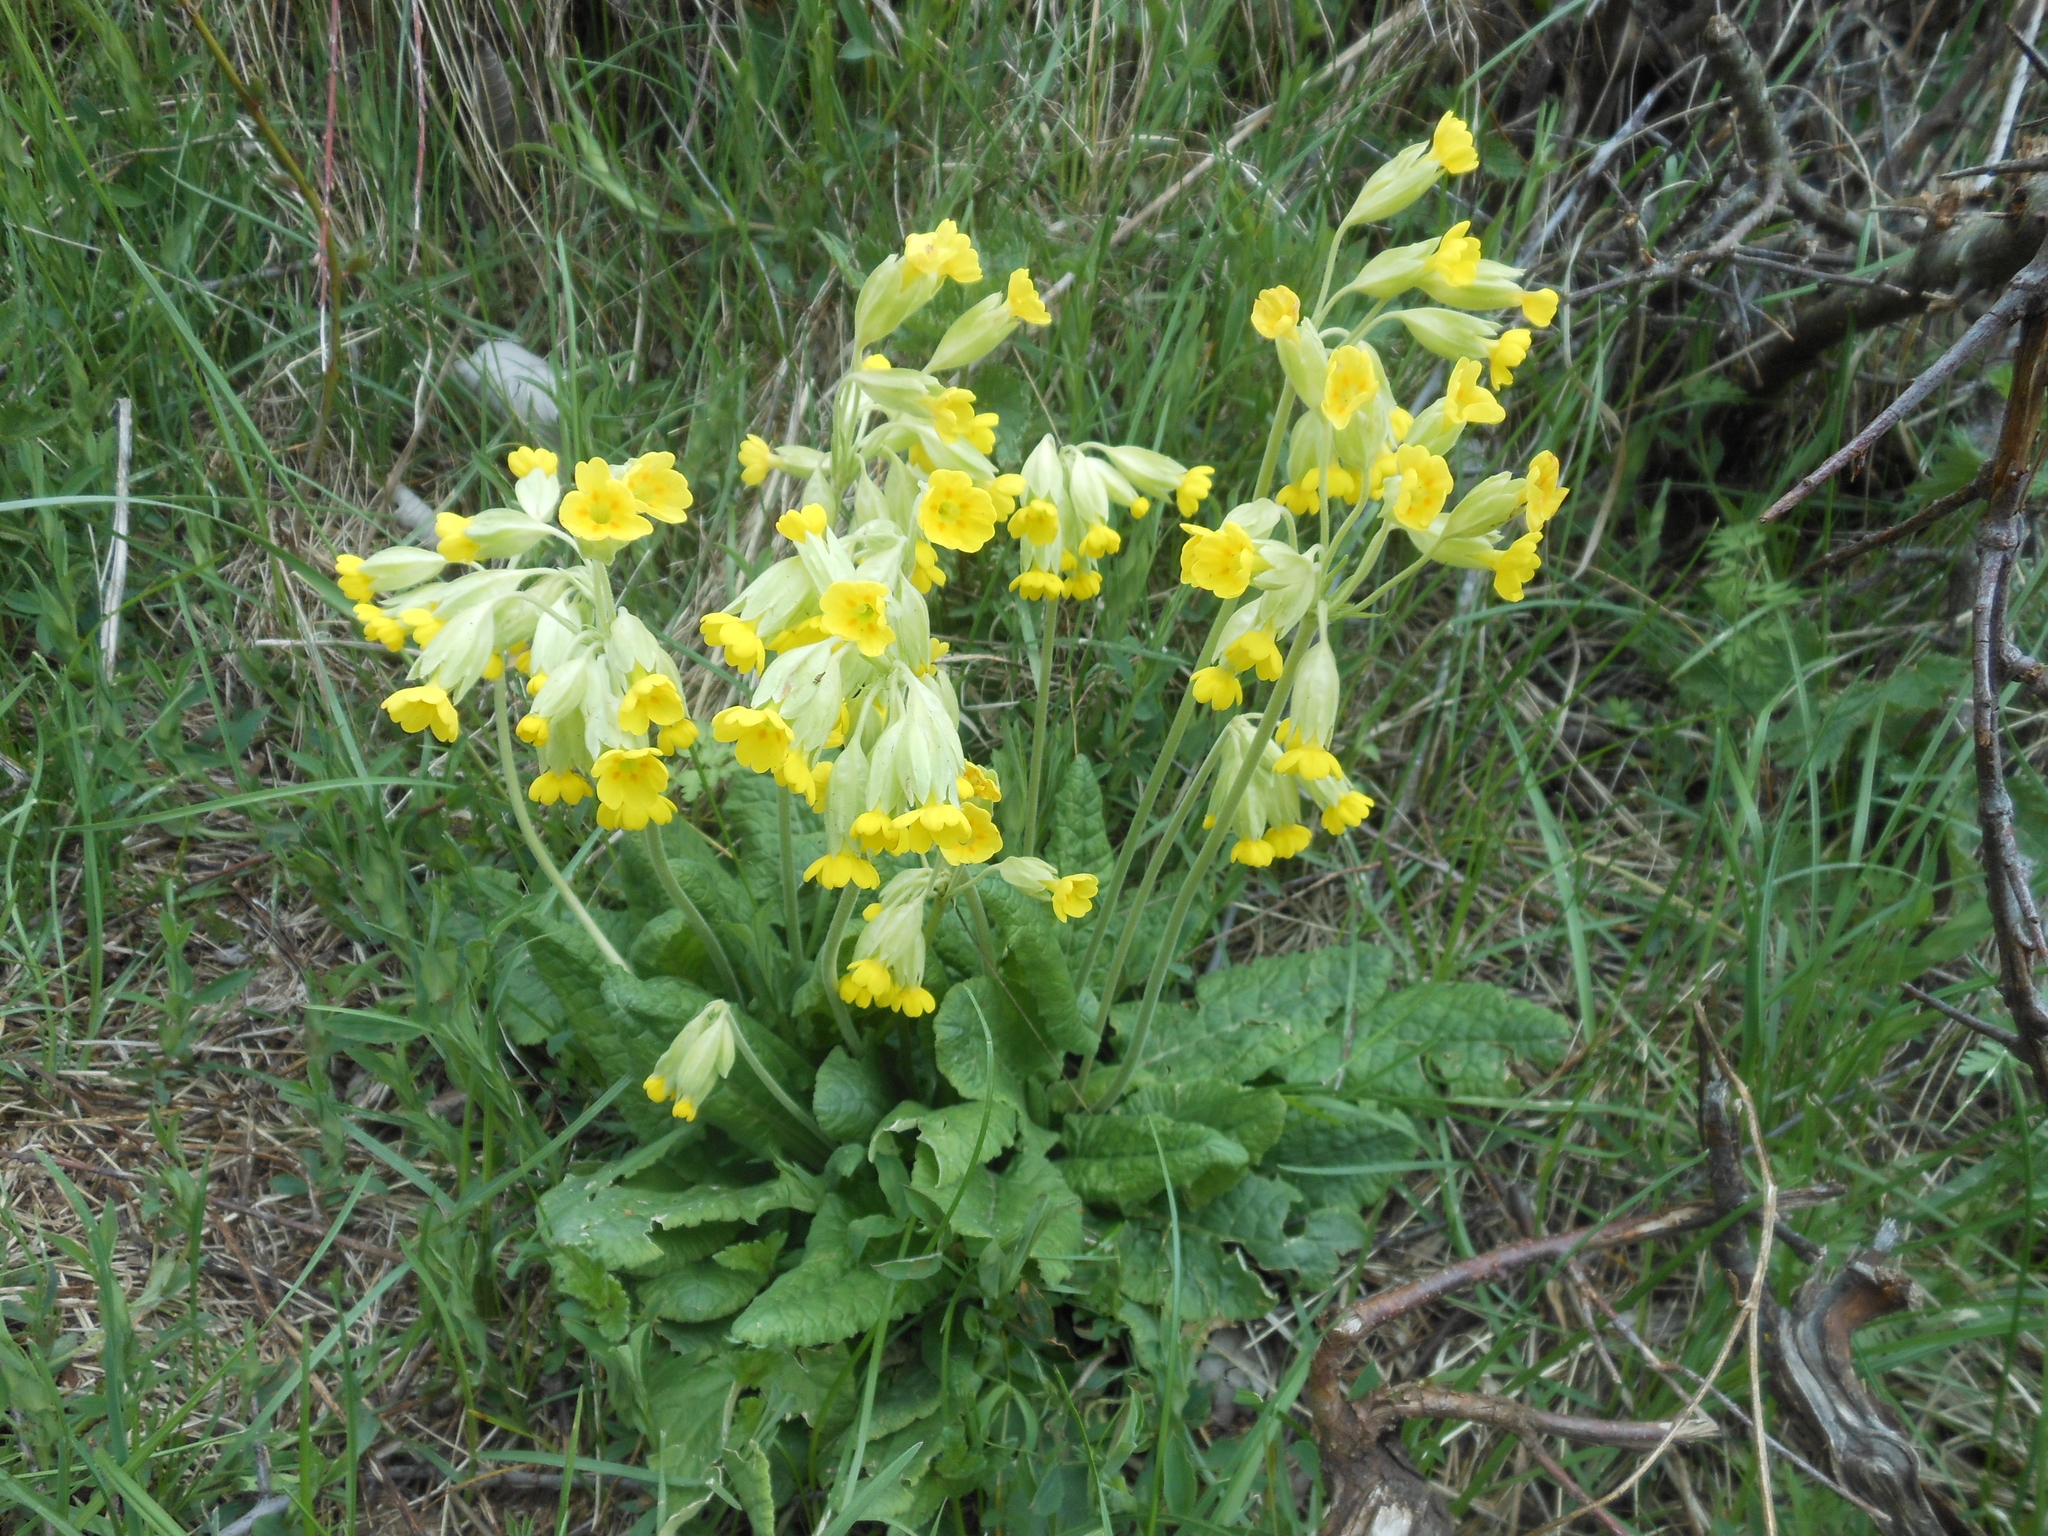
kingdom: Plantae
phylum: Tracheophyta
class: Magnoliopsida
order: Ericales
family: Primulaceae
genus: Primula
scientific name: Primula veris
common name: Cowslip
